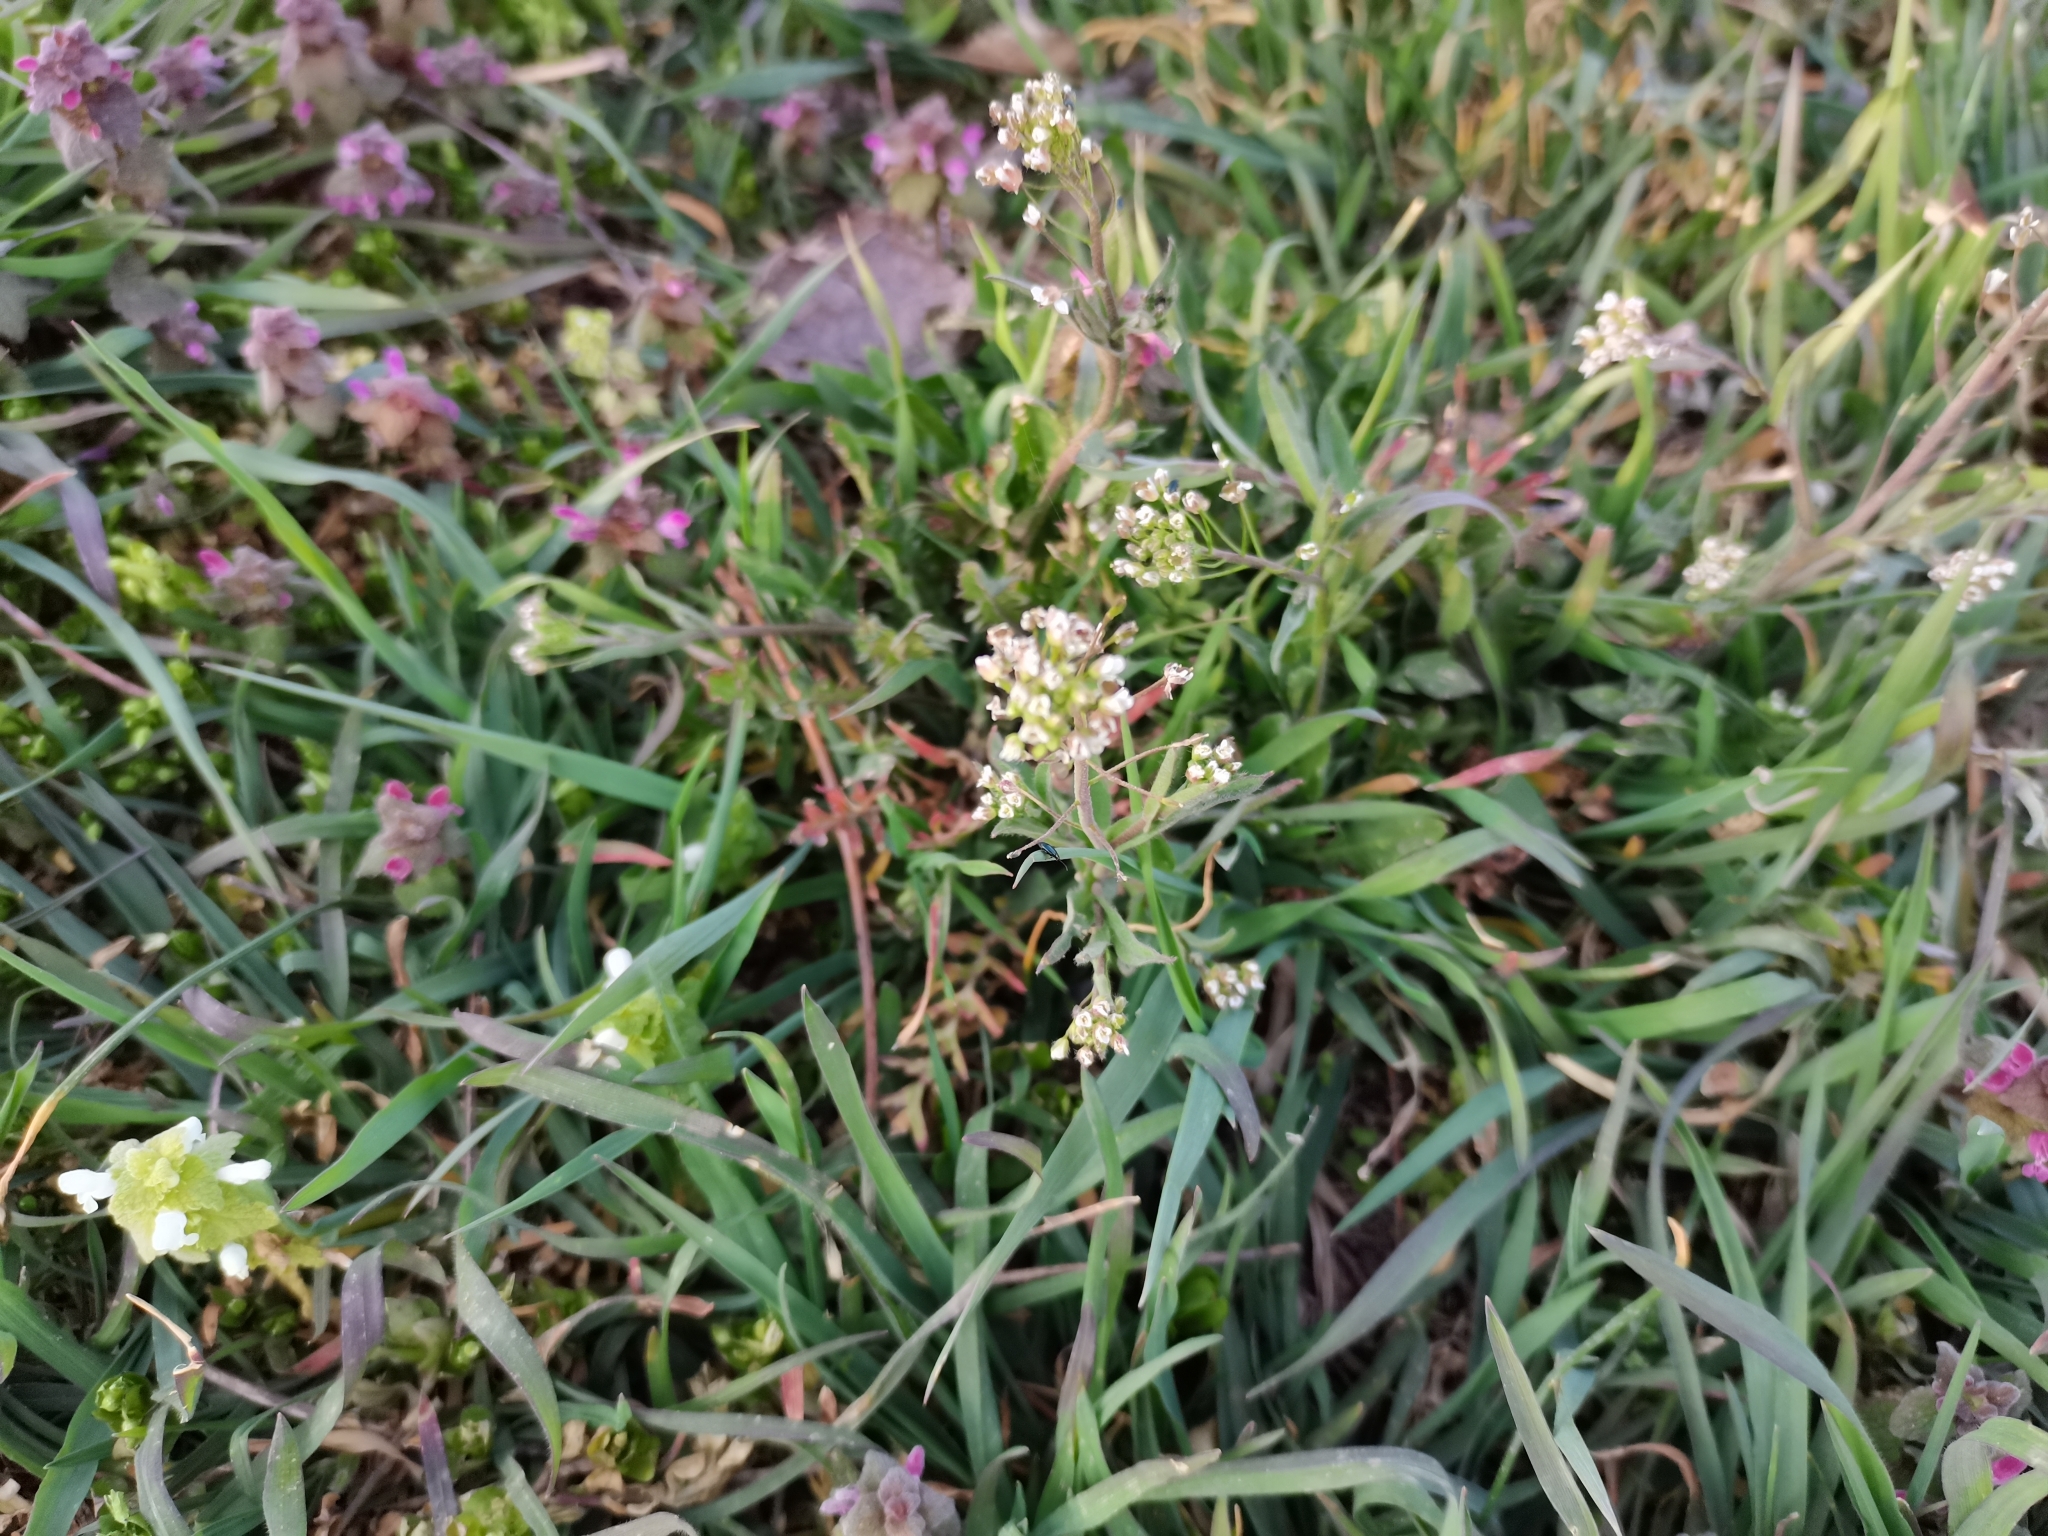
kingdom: Plantae
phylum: Tracheophyta
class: Magnoliopsida
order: Brassicales
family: Brassicaceae
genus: Capsella
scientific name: Capsella bursa-pastoris
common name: Shepherd's purse
